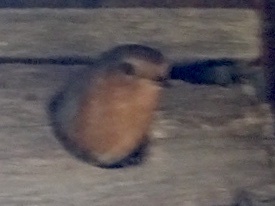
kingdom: Animalia
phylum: Chordata
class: Aves
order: Passeriformes
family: Muscicapidae
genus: Erithacus
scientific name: Erithacus rubecula
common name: European robin
